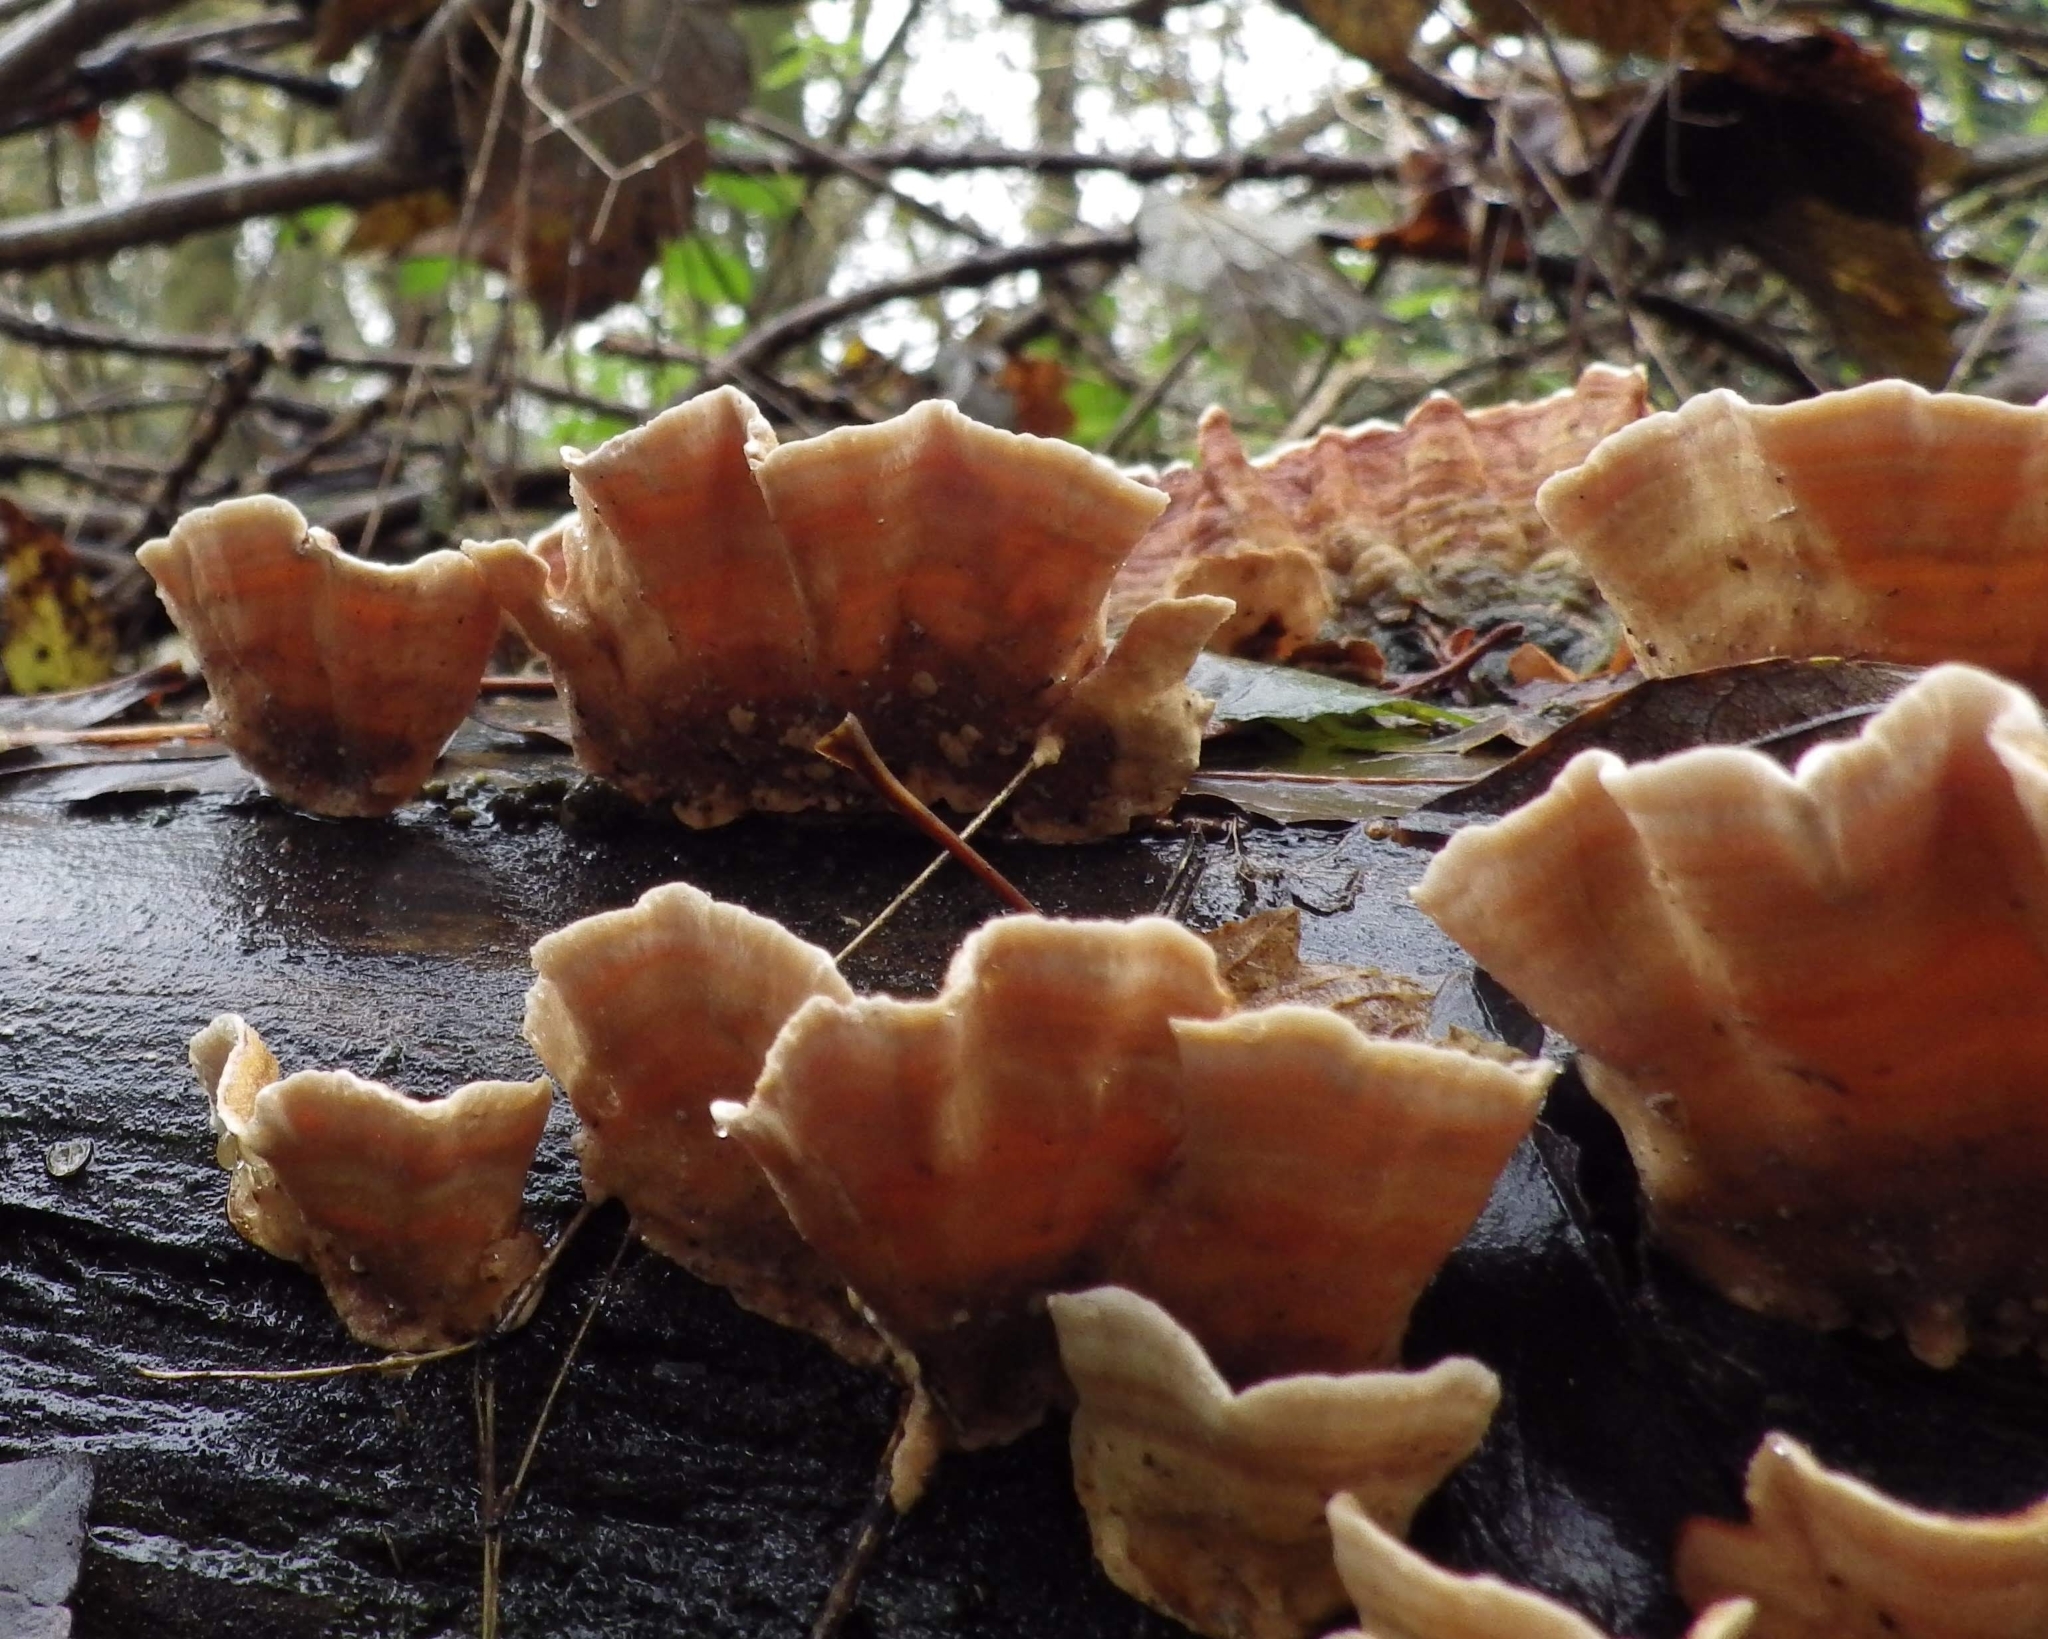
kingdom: Fungi
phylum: Basidiomycota
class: Agaricomycetes
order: Russulales
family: Stereaceae
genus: Stereum
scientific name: Stereum subtomentosum
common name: Yellowing curtain crust
